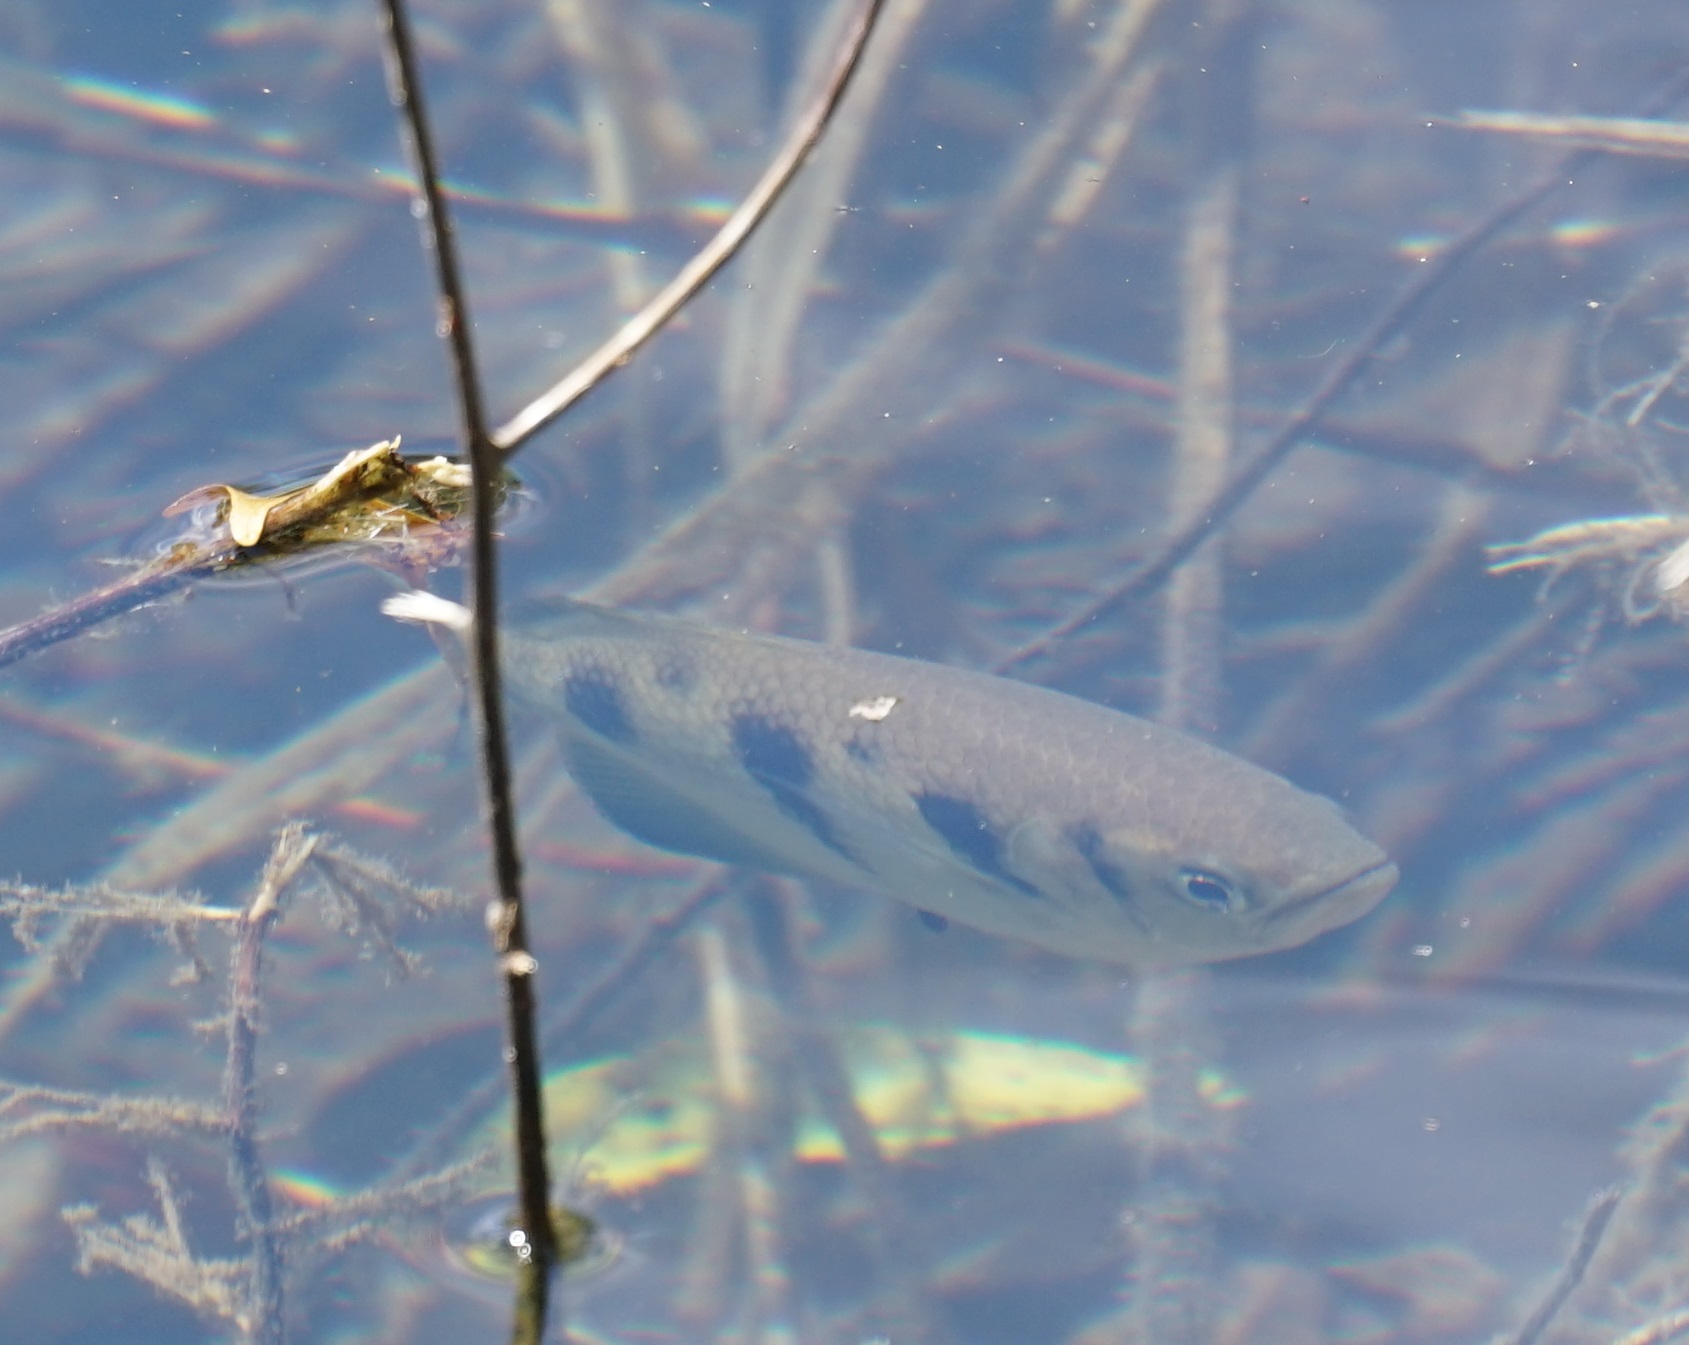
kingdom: Animalia
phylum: Chordata
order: Perciformes
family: Toxotidae
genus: Toxotes
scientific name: Toxotes chatareus
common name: Spotted archerfish
